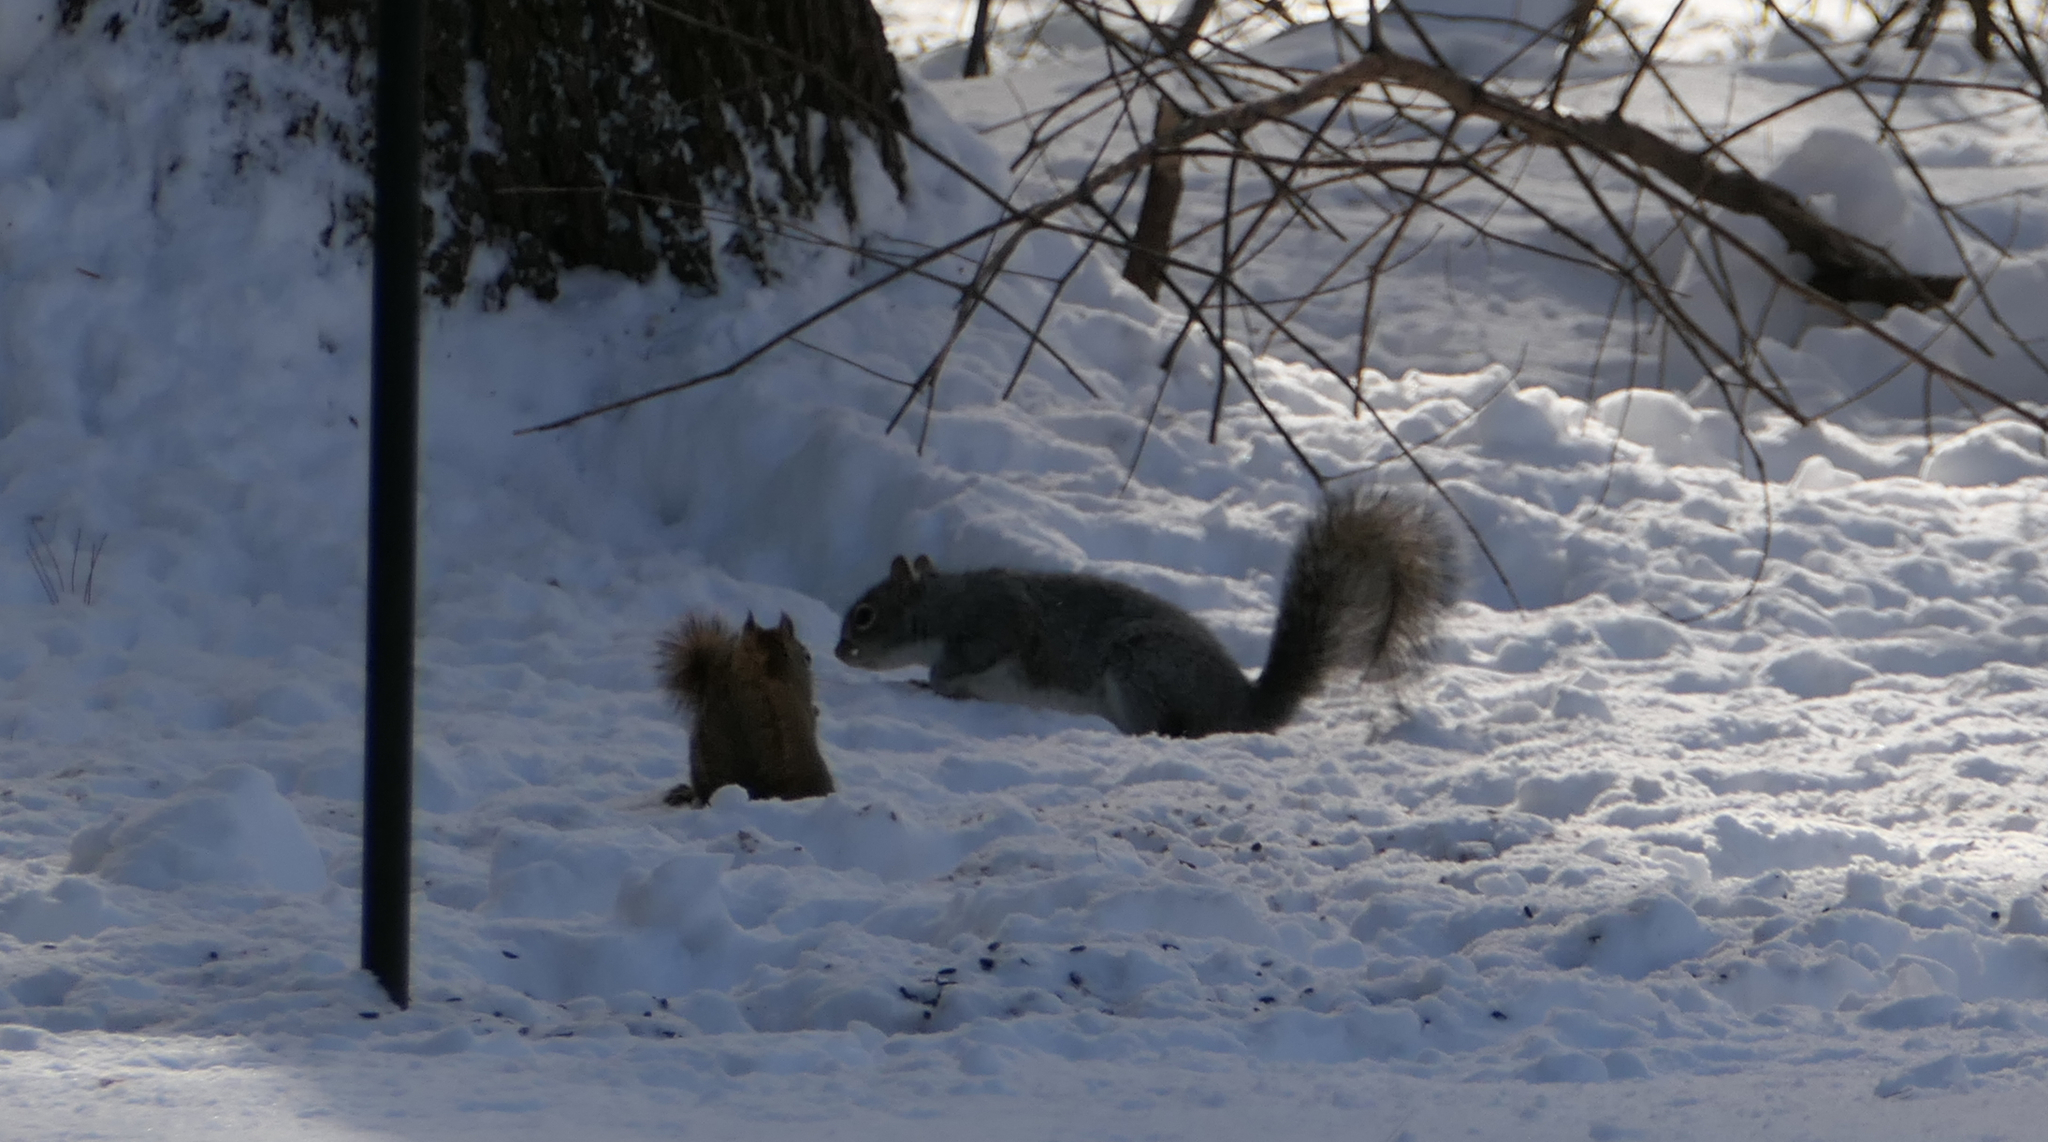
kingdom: Animalia
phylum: Chordata
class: Mammalia
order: Rodentia
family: Sciuridae
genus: Tamiasciurus
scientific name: Tamiasciurus hudsonicus
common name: Red squirrel
